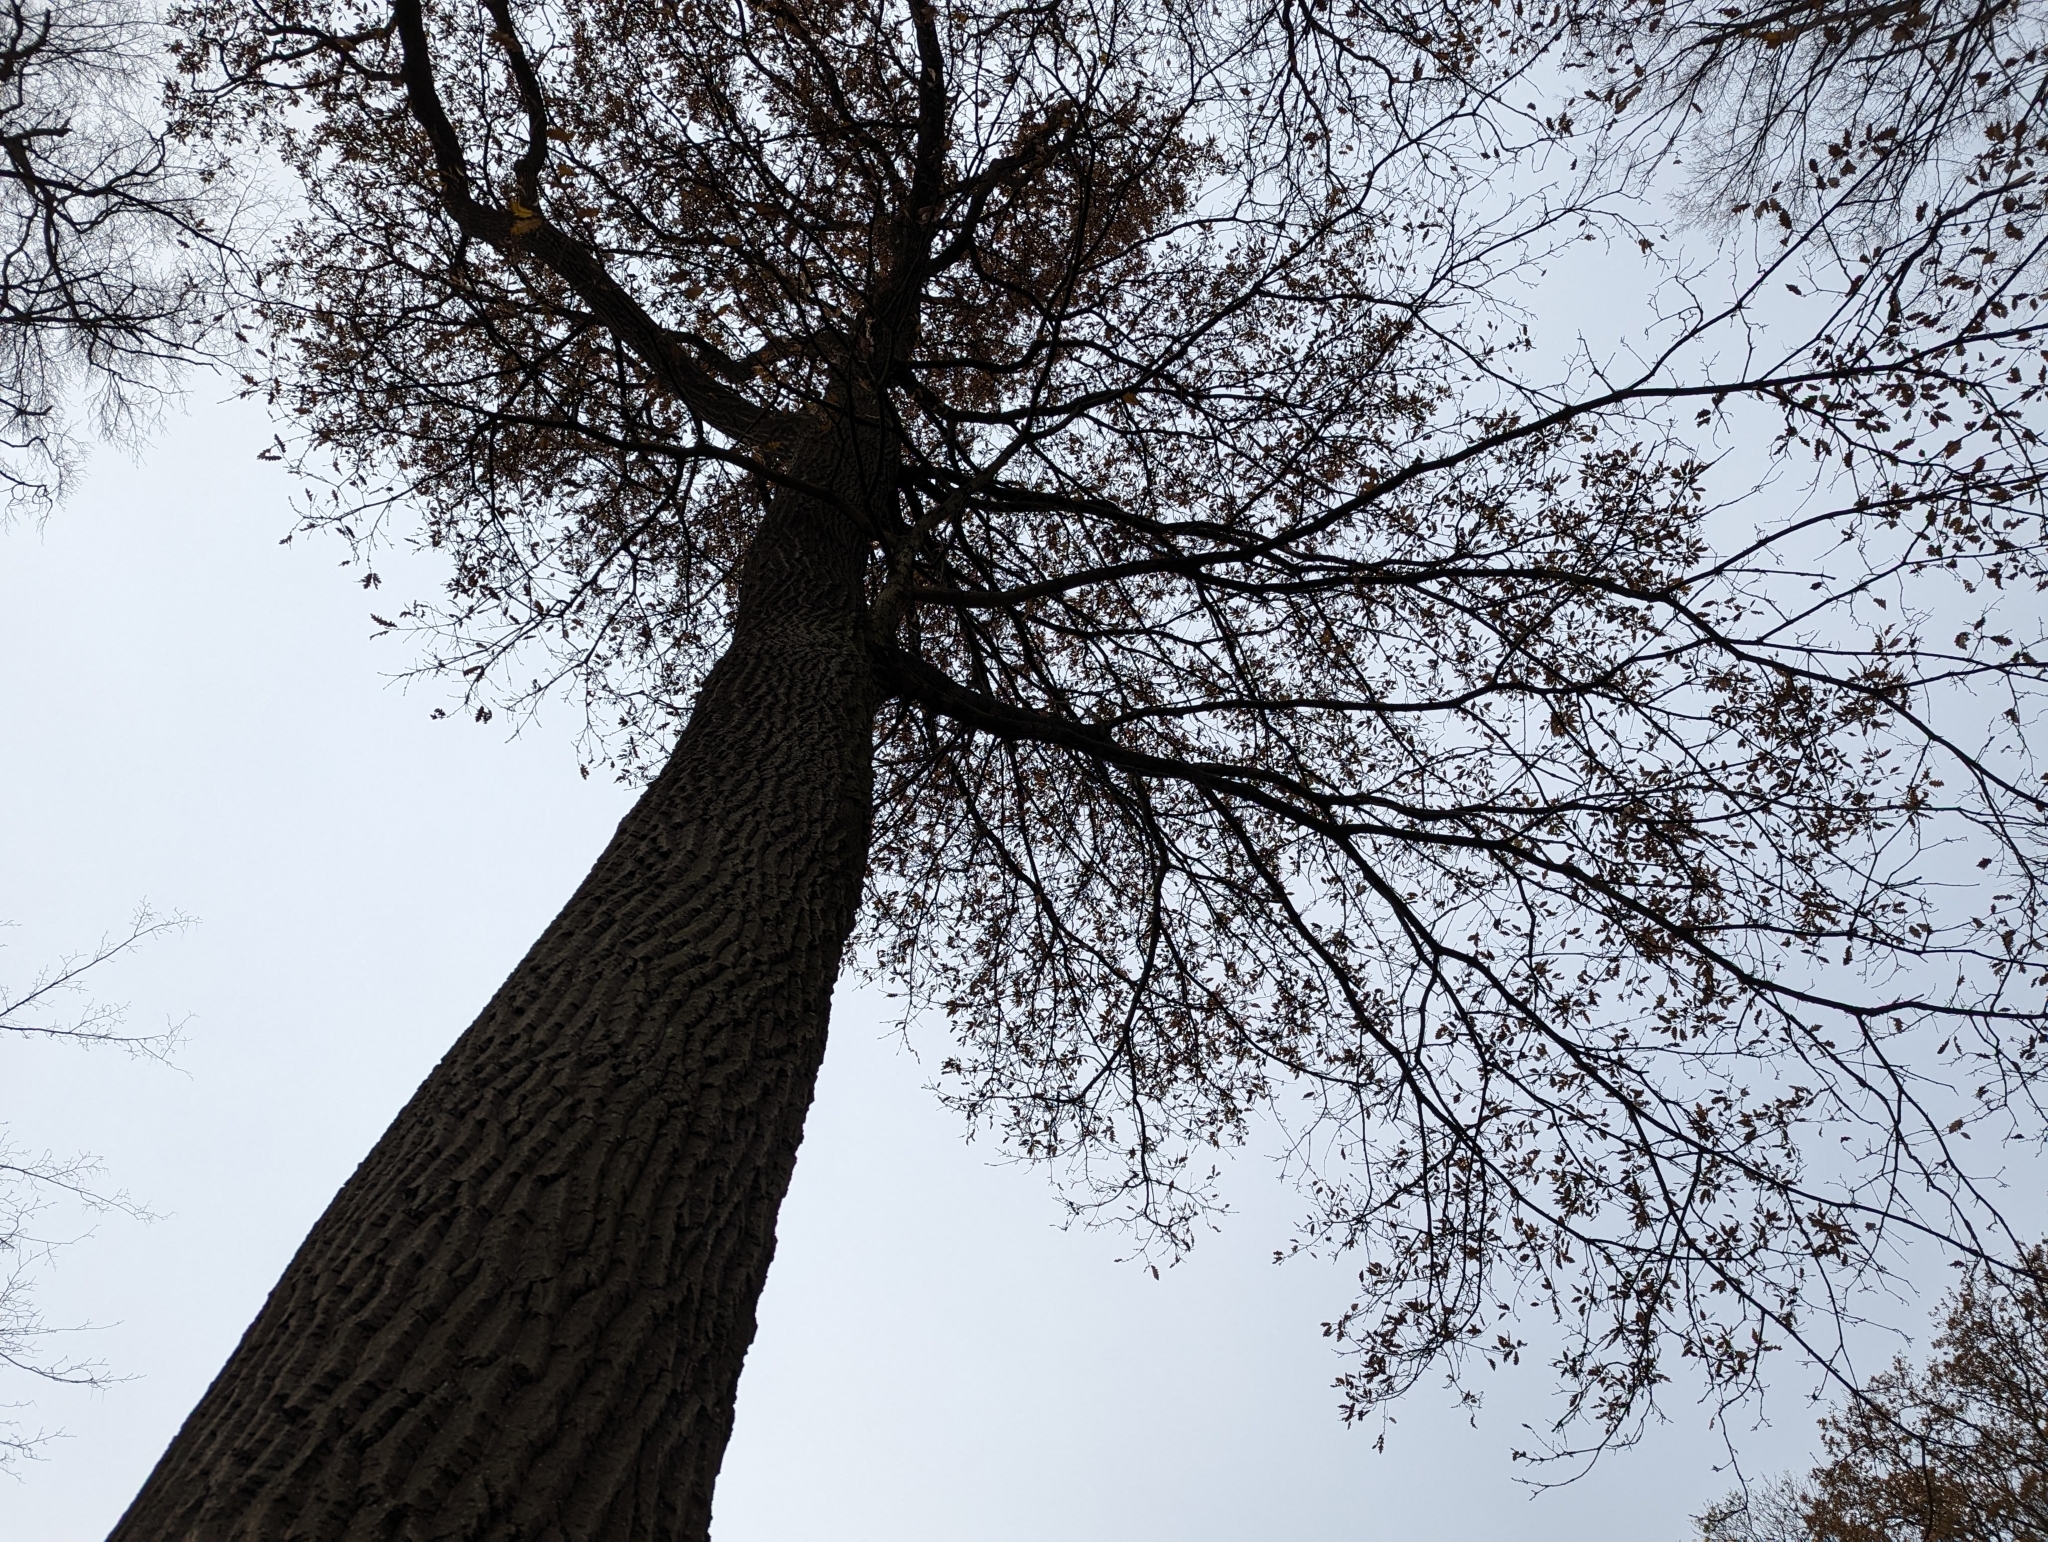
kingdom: Plantae
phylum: Tracheophyta
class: Magnoliopsida
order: Fagales
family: Fagaceae
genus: Quercus
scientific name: Quercus cerris
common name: Turkey oak
